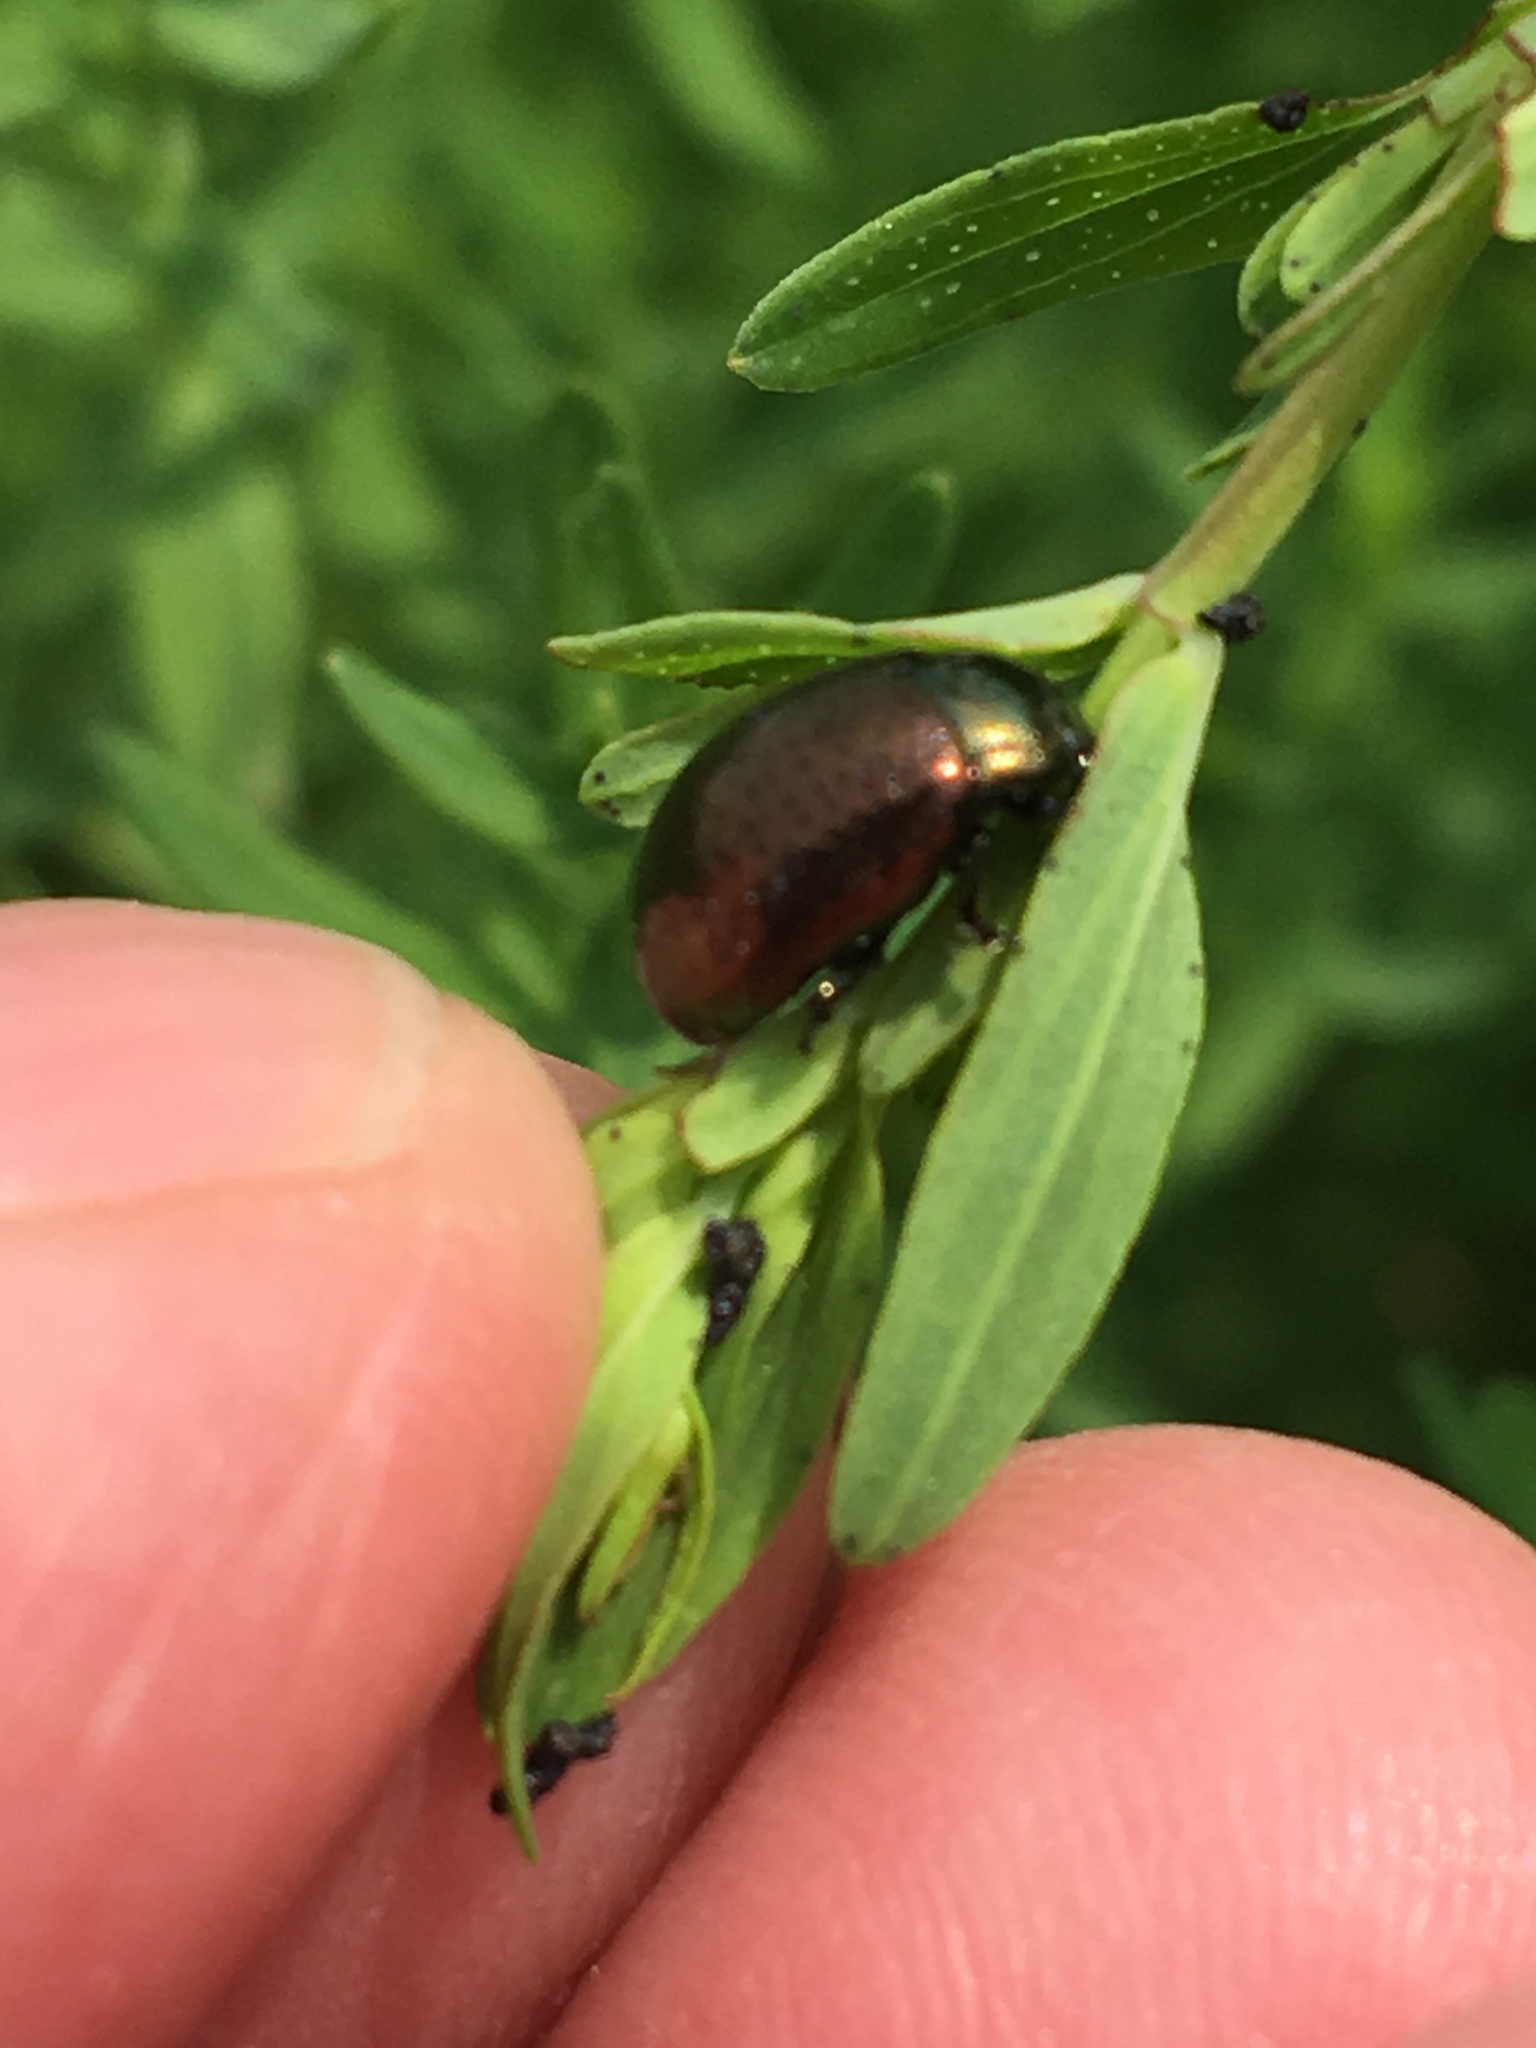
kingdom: Animalia
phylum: Arthropoda
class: Insecta
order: Coleoptera
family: Chrysomelidae
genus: Chrysolina
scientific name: Chrysolina hyperici
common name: St. johnswort beetle
